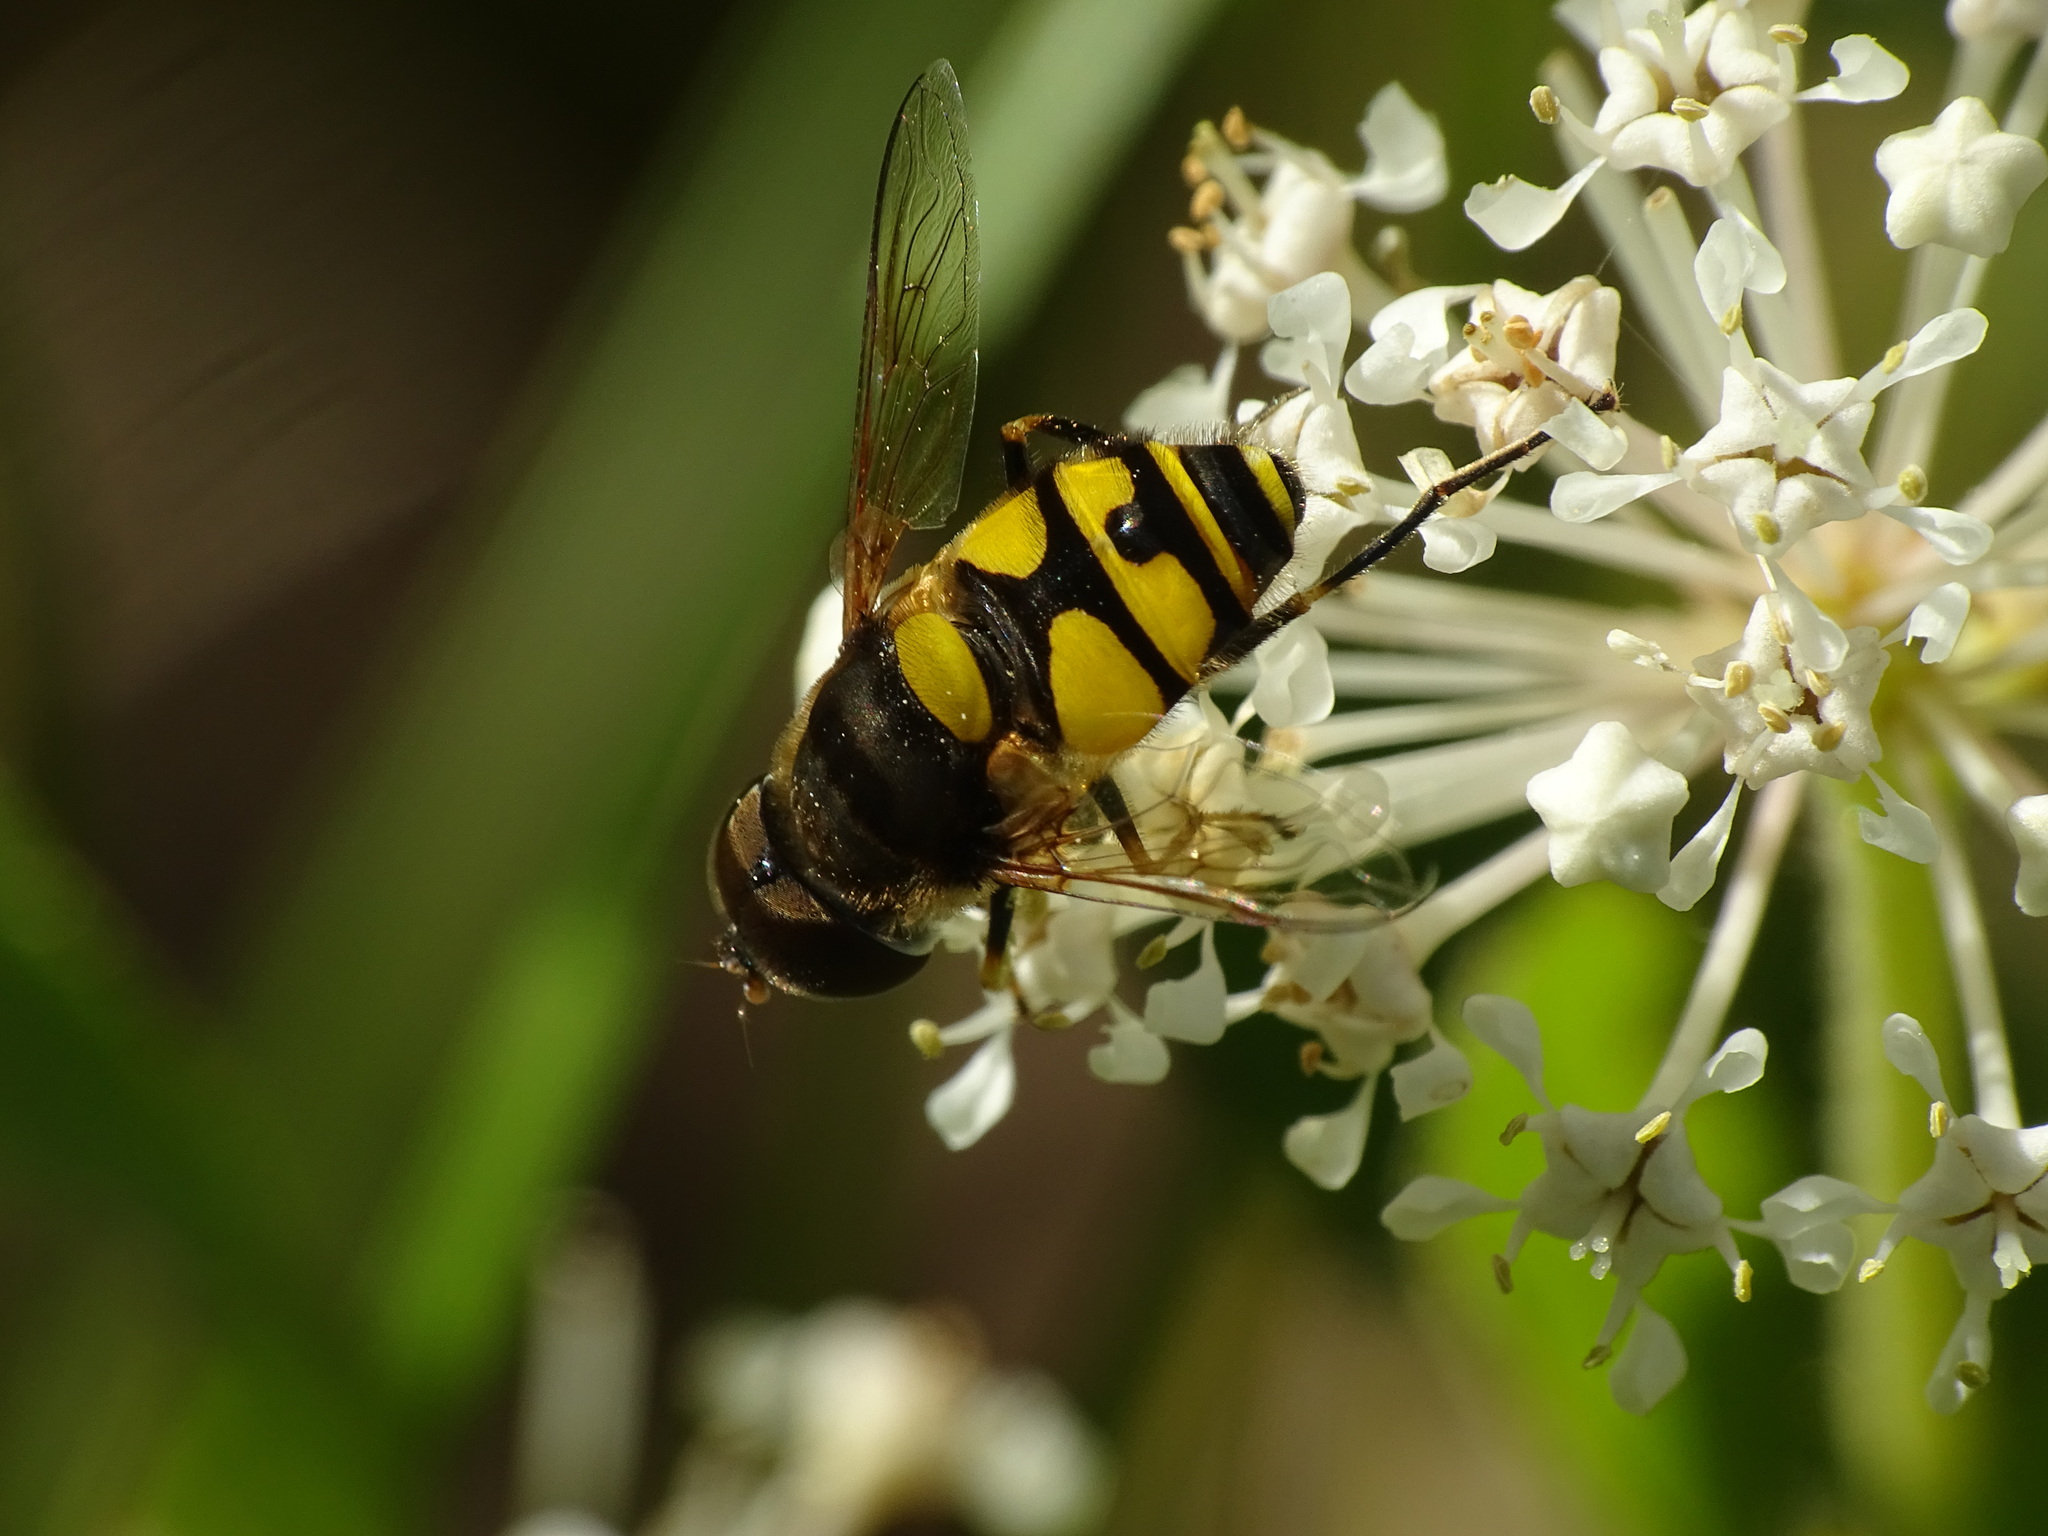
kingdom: Animalia
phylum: Arthropoda
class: Insecta
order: Diptera
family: Syrphidae
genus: Eristalis
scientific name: Eristalis transversa
